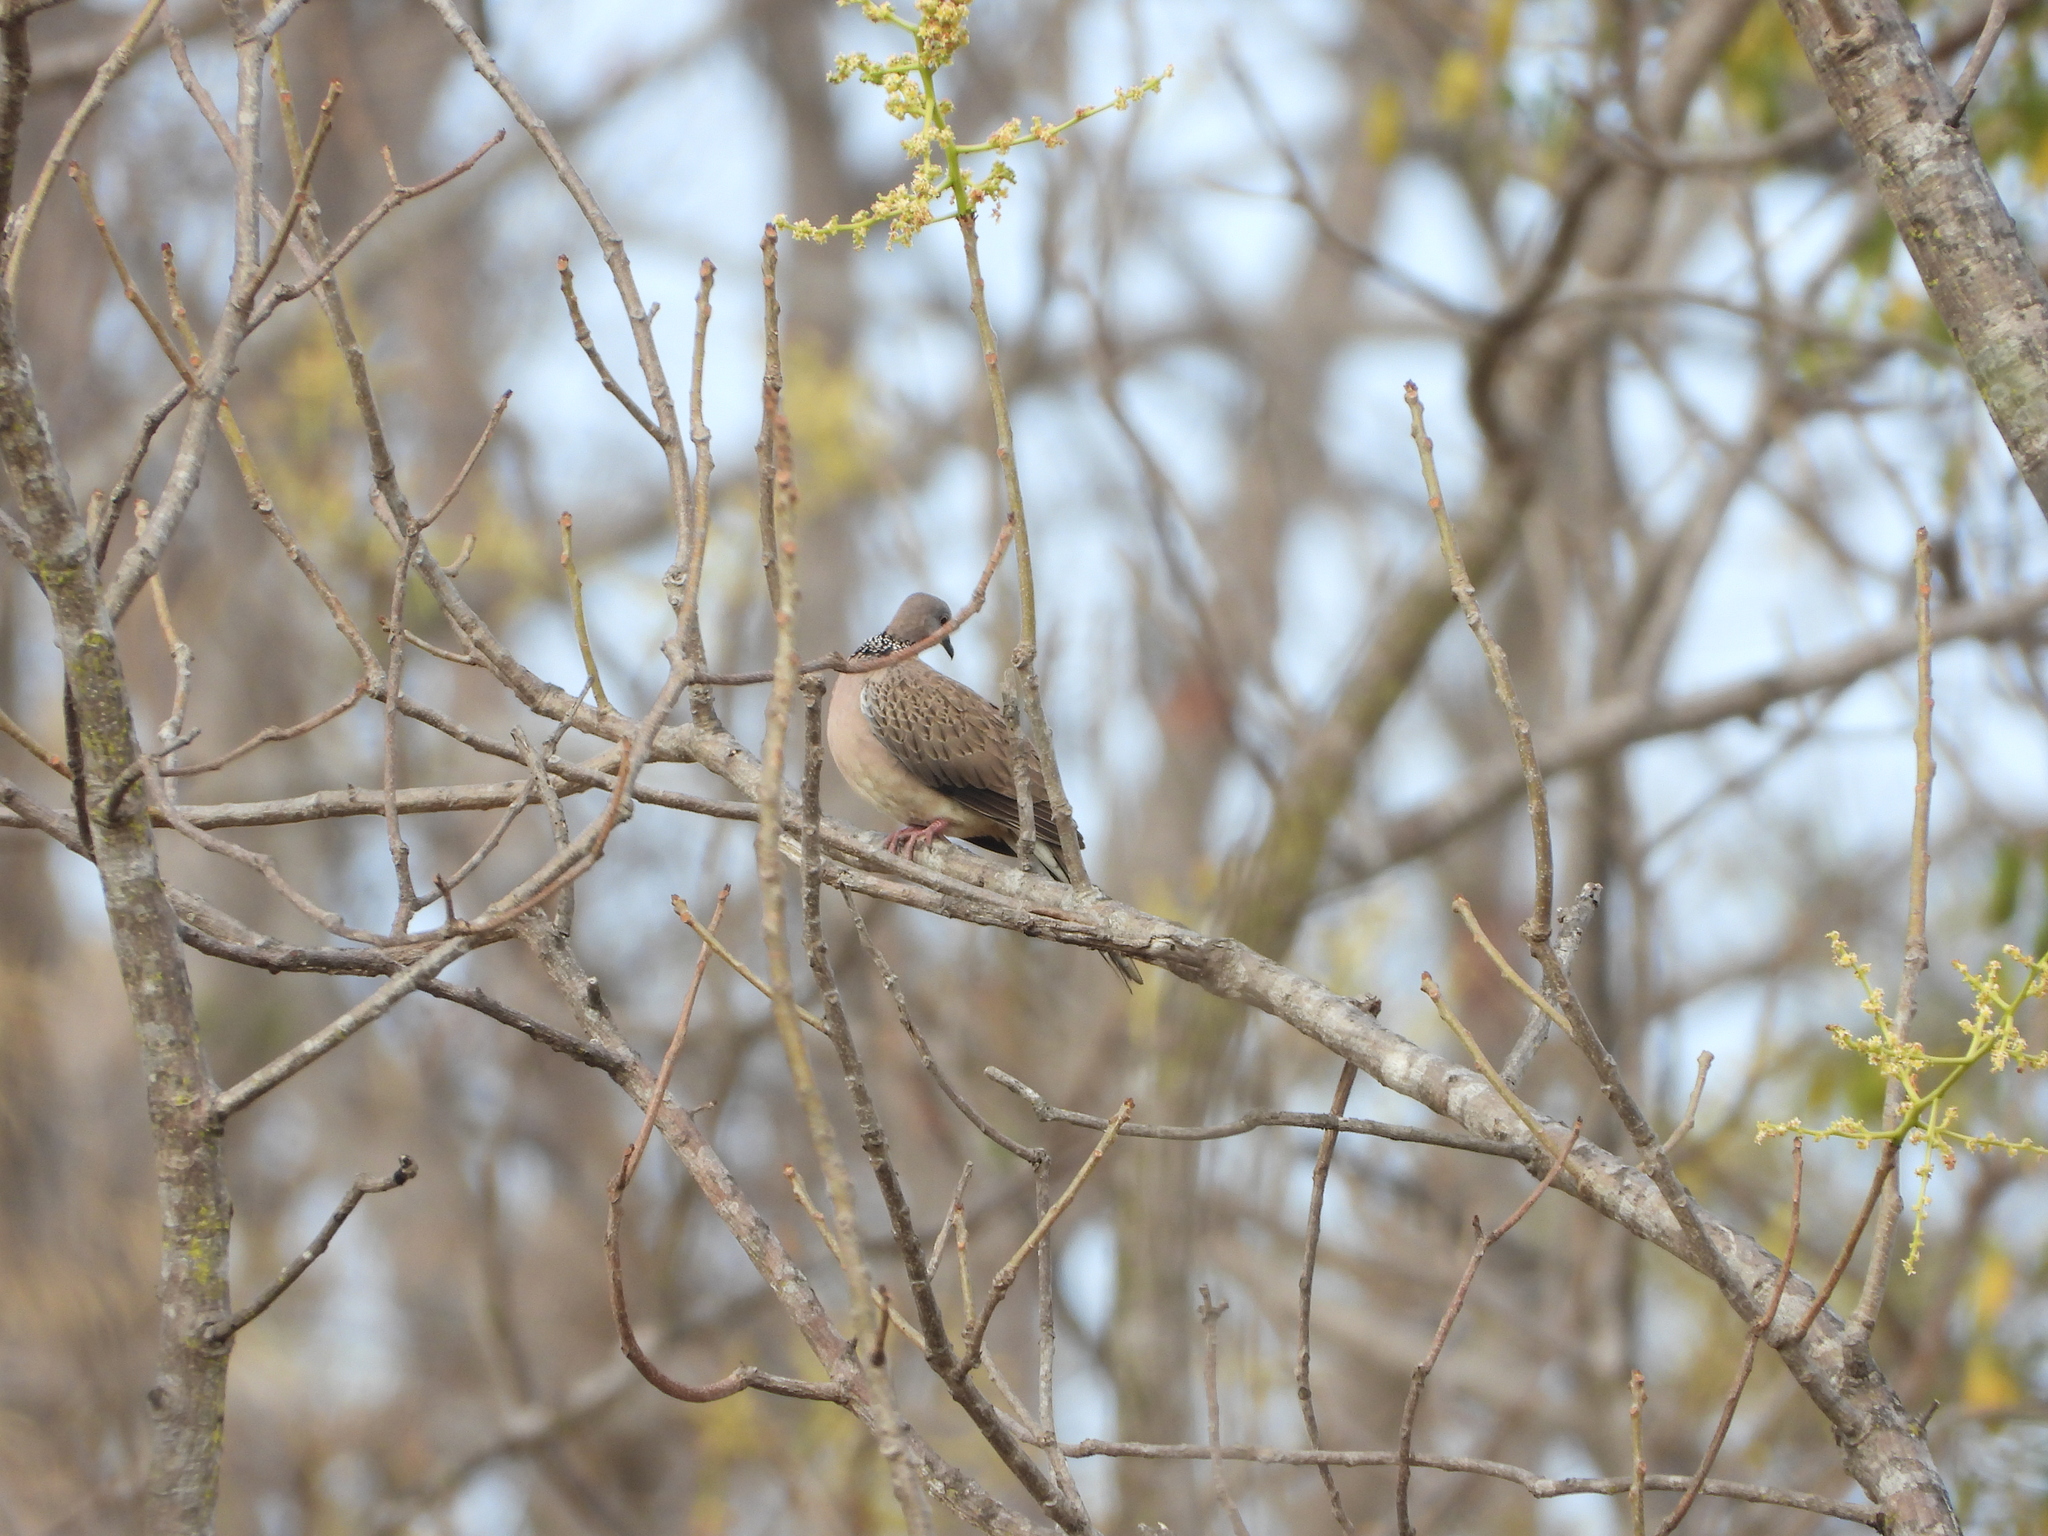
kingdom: Animalia
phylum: Chordata
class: Aves
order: Columbiformes
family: Columbidae
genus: Spilopelia
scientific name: Spilopelia chinensis
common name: Spotted dove
